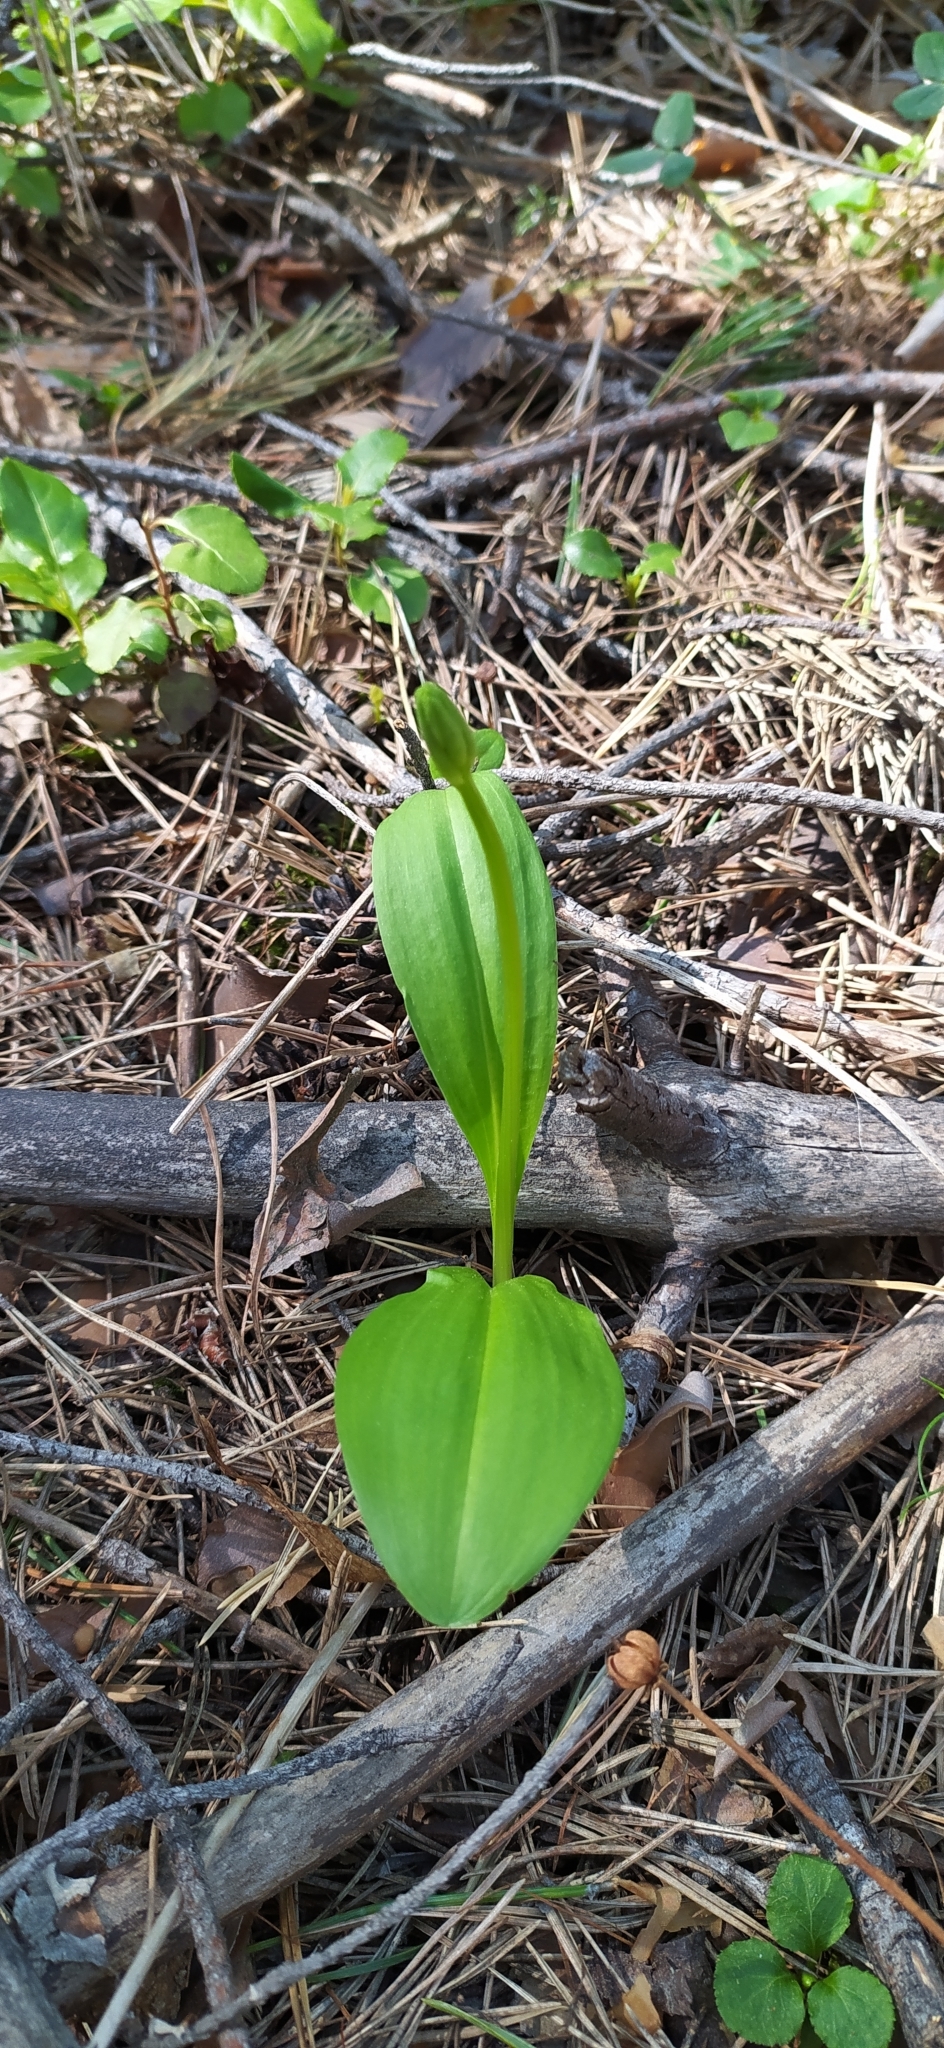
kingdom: Plantae
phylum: Tracheophyta
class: Liliopsida
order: Asparagales
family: Orchidaceae
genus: Platanthera
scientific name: Platanthera bifolia
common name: Lesser butterfly-orchid
